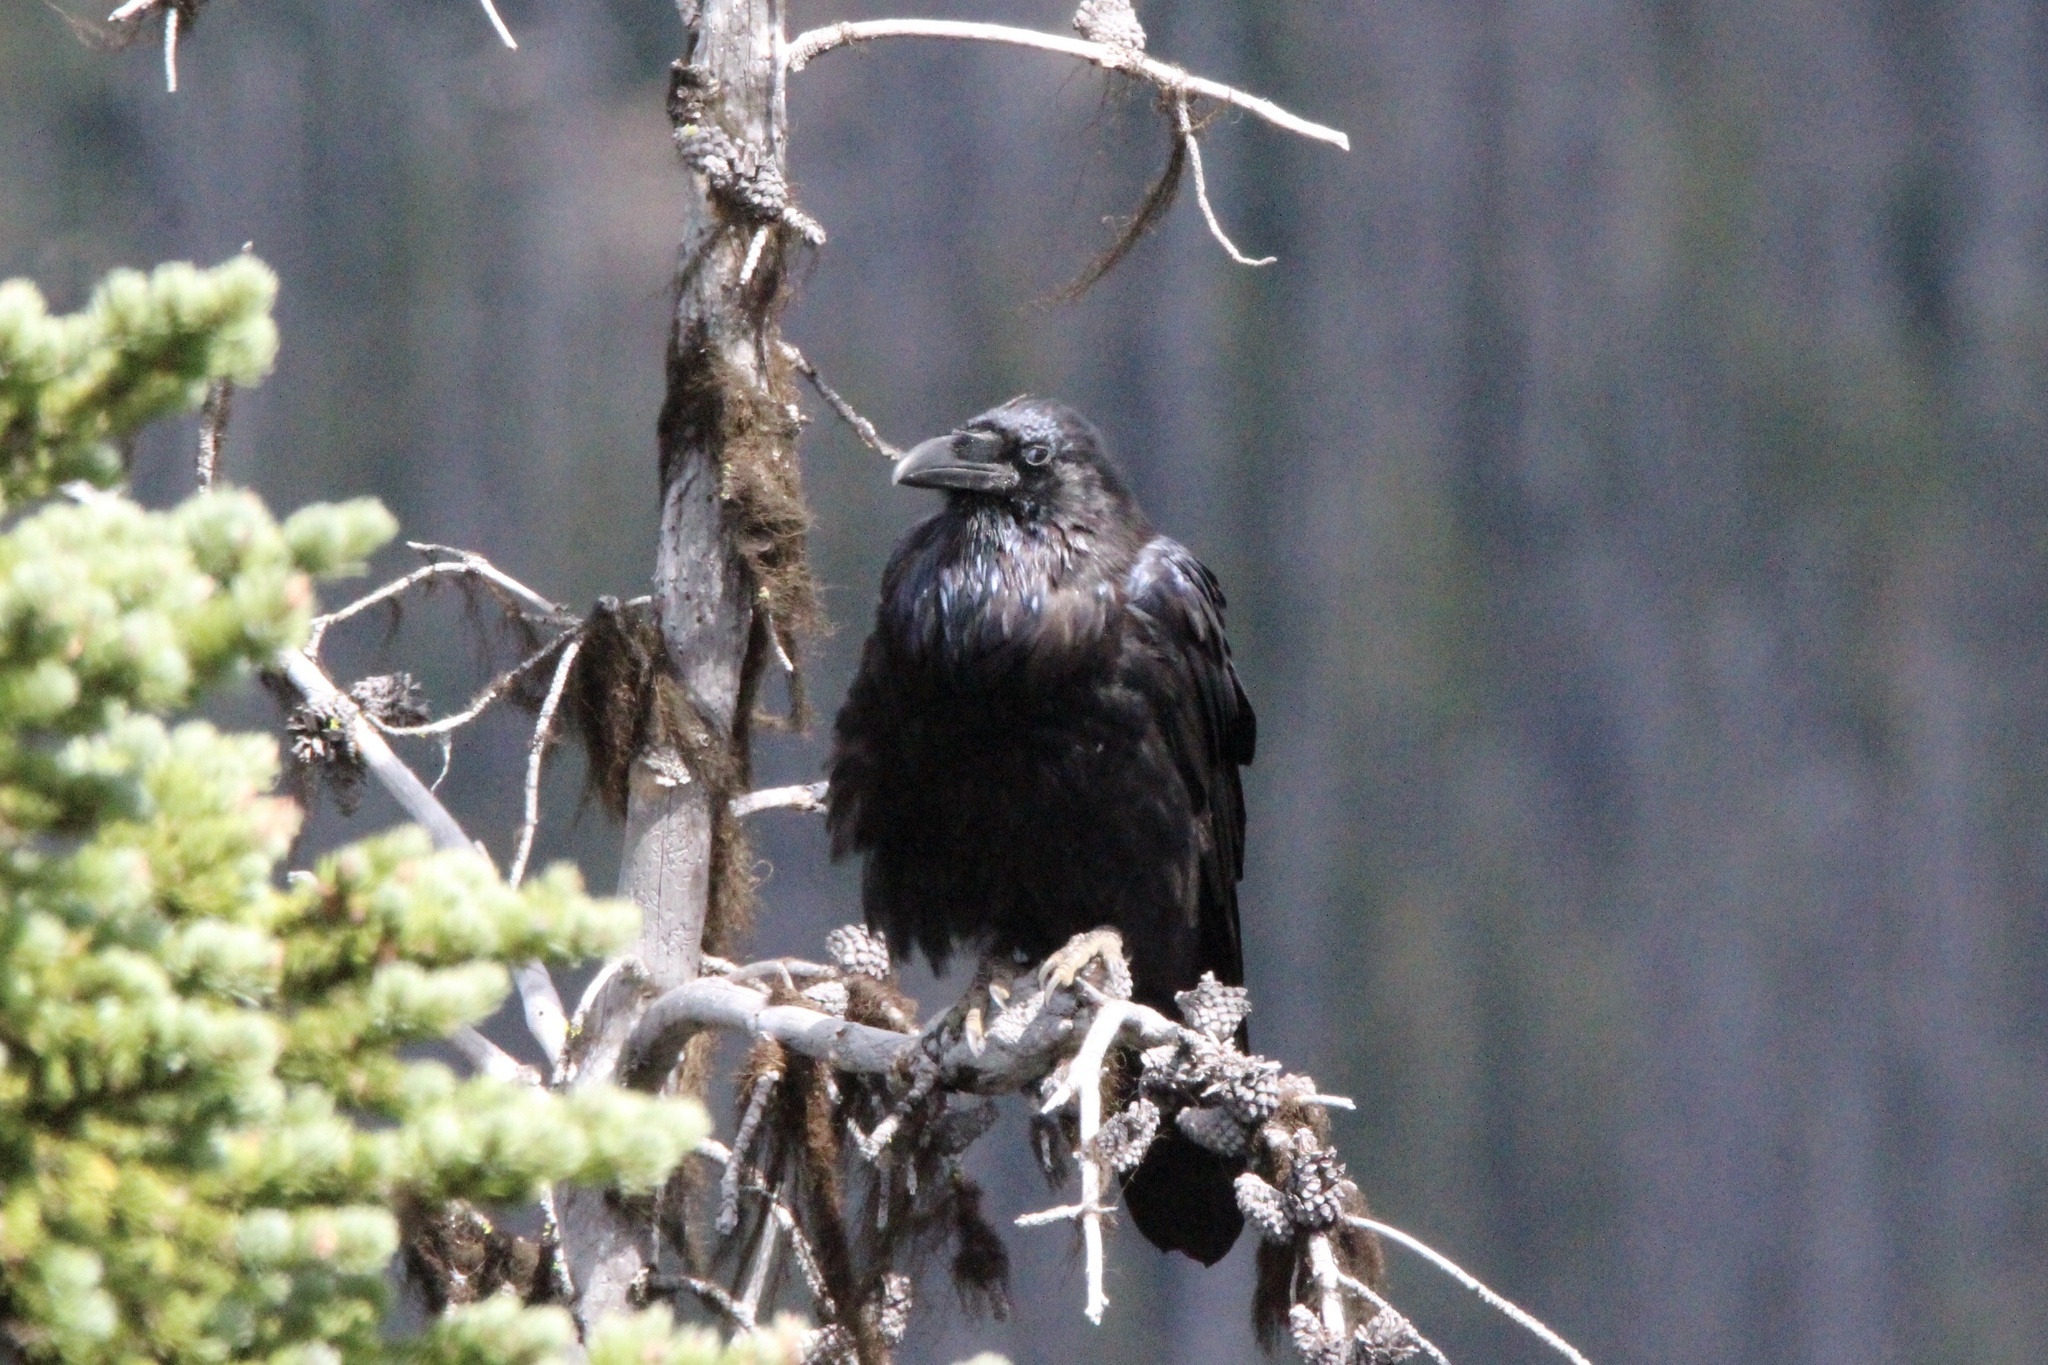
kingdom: Animalia
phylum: Chordata
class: Aves
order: Passeriformes
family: Corvidae
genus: Corvus
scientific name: Corvus corax
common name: Common raven
